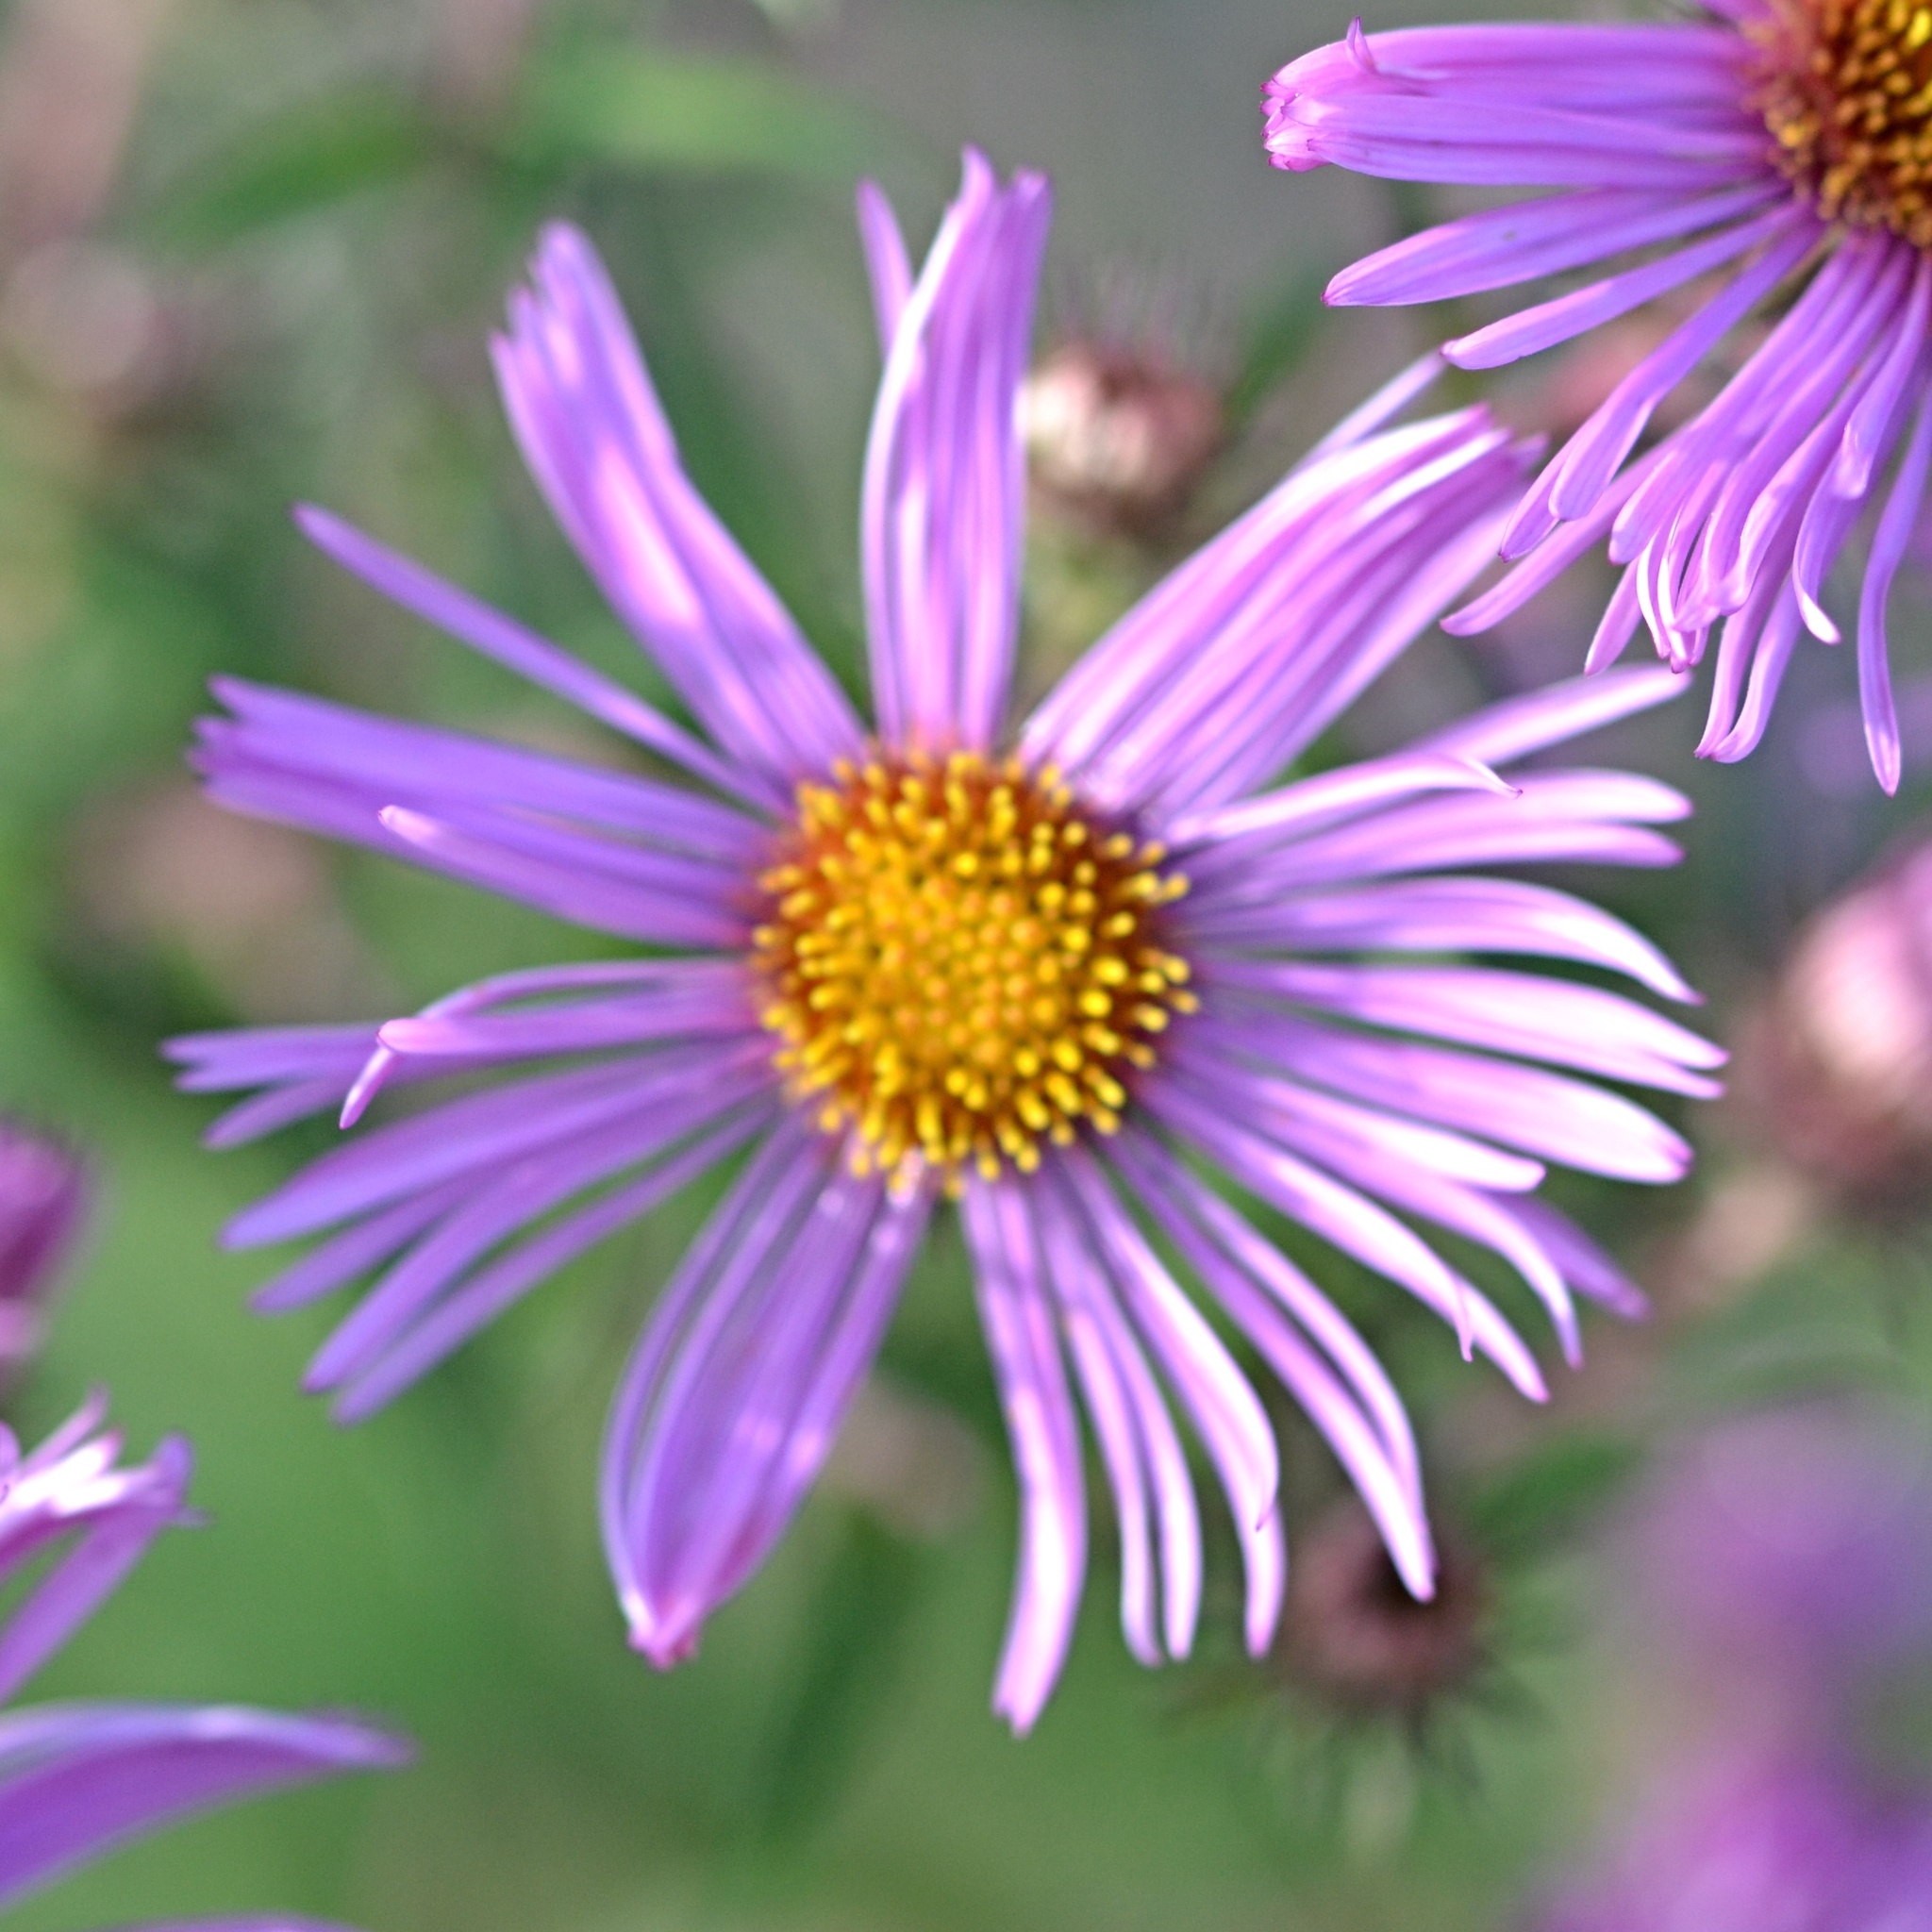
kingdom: Plantae
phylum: Tracheophyta
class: Magnoliopsida
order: Asterales
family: Asteraceae
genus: Symphyotrichum
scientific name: Symphyotrichum novae-angliae
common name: Michaelmas daisy
